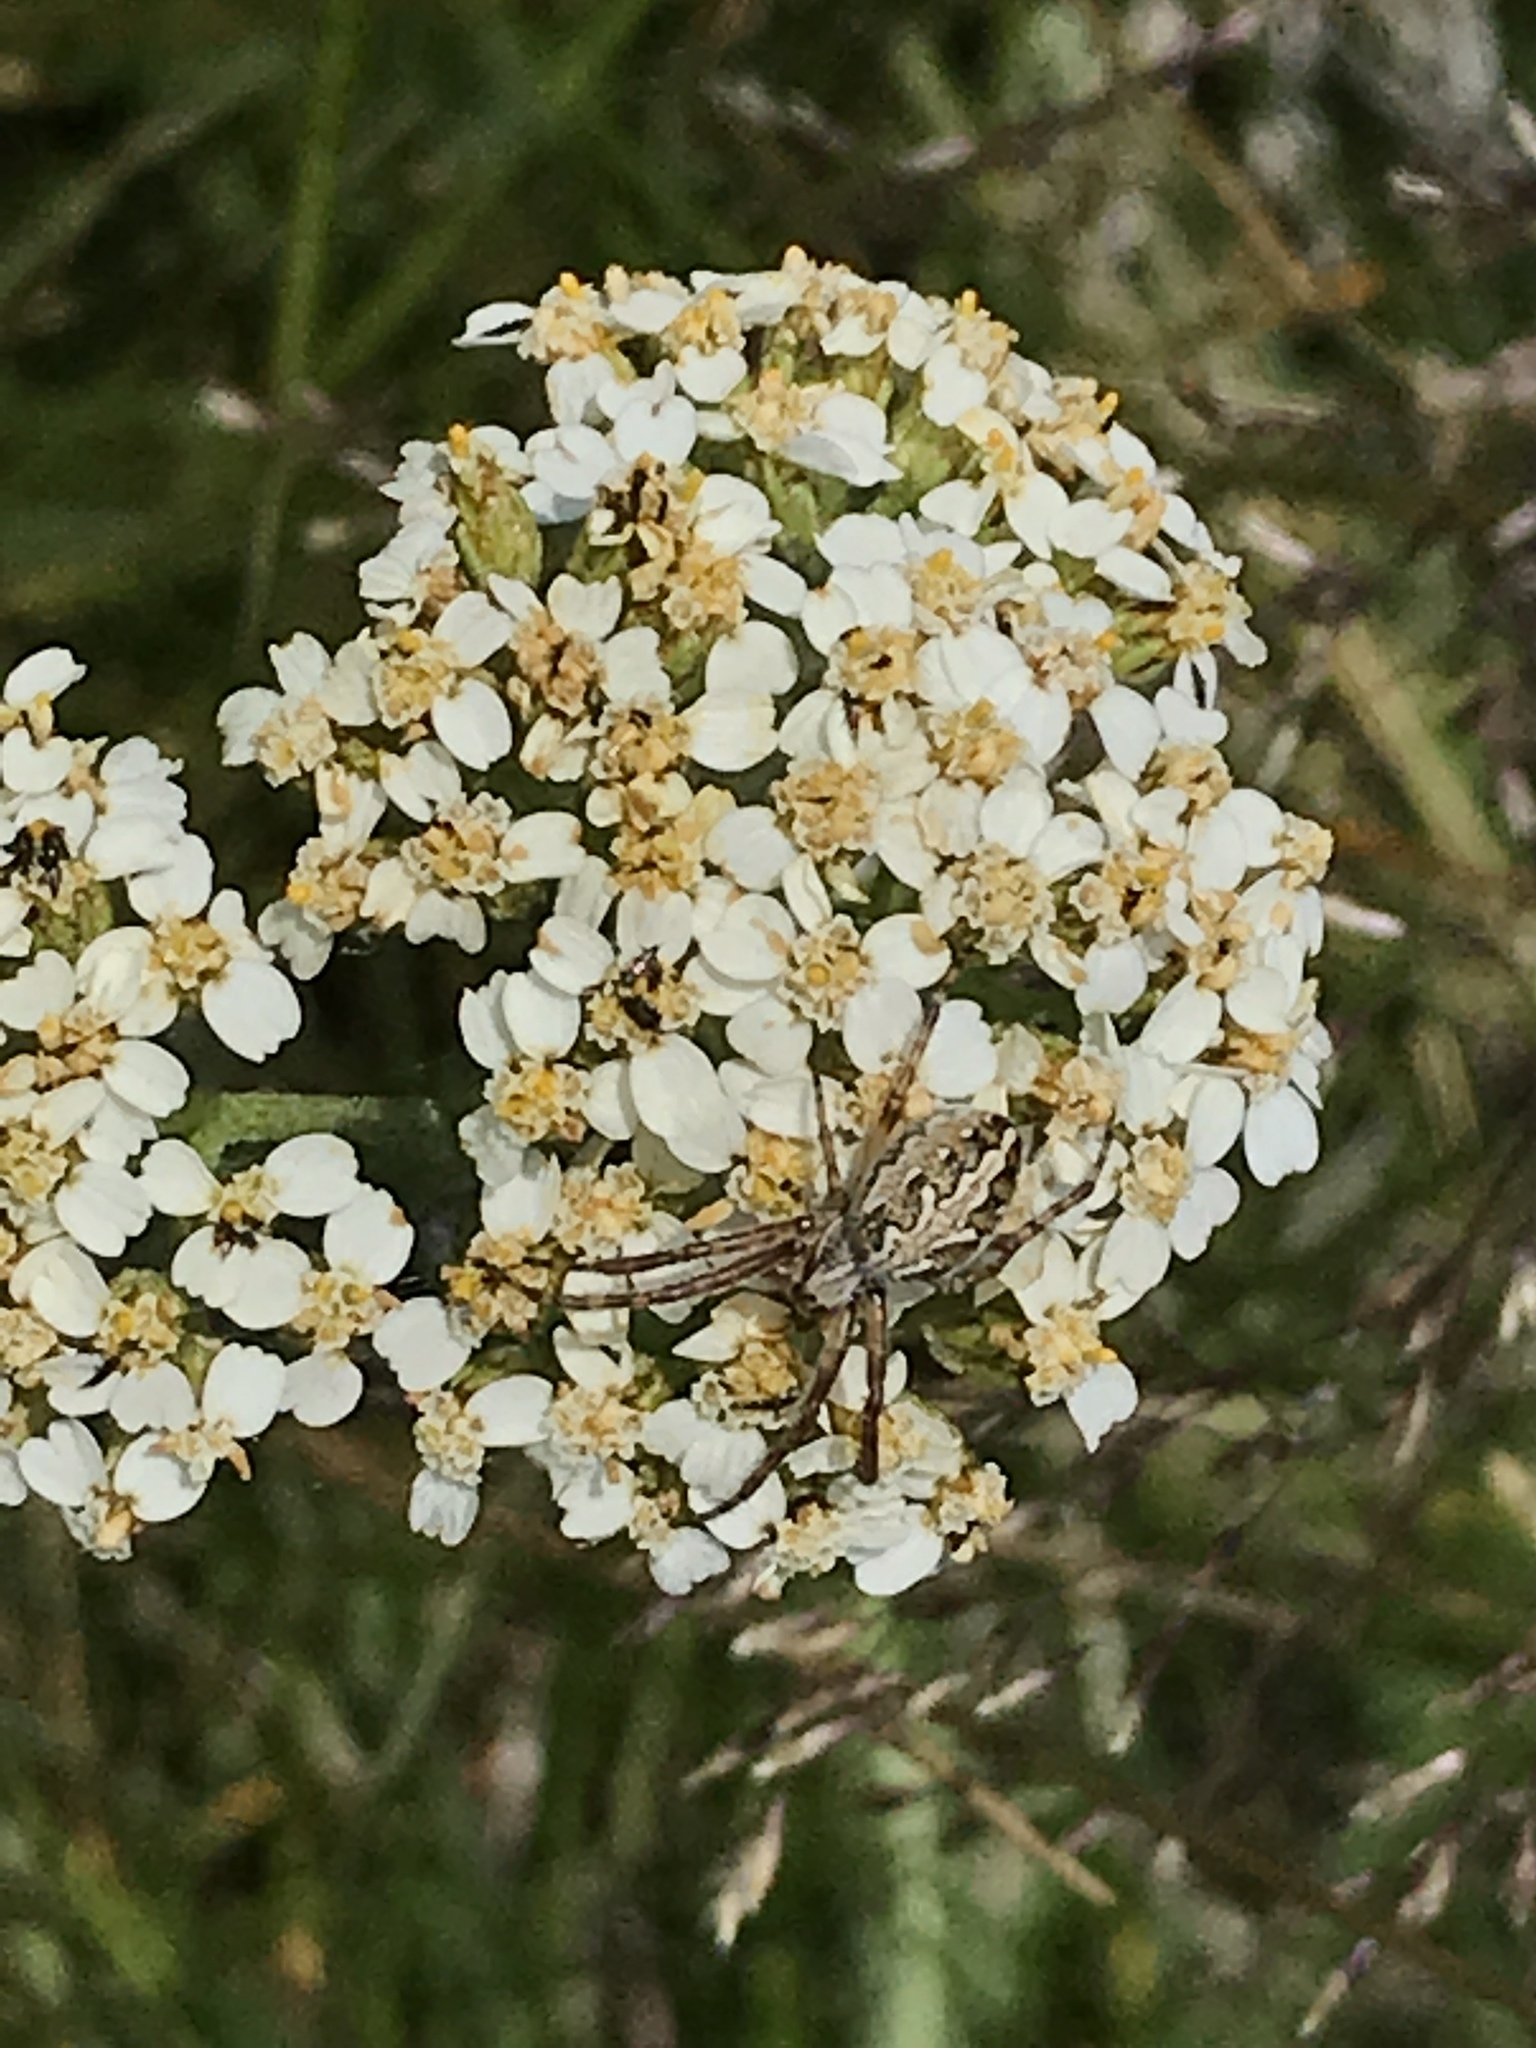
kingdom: Plantae
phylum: Tracheophyta
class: Magnoliopsida
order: Asterales
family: Asteraceae
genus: Achillea
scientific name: Achillea millefolium
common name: Yarrow
